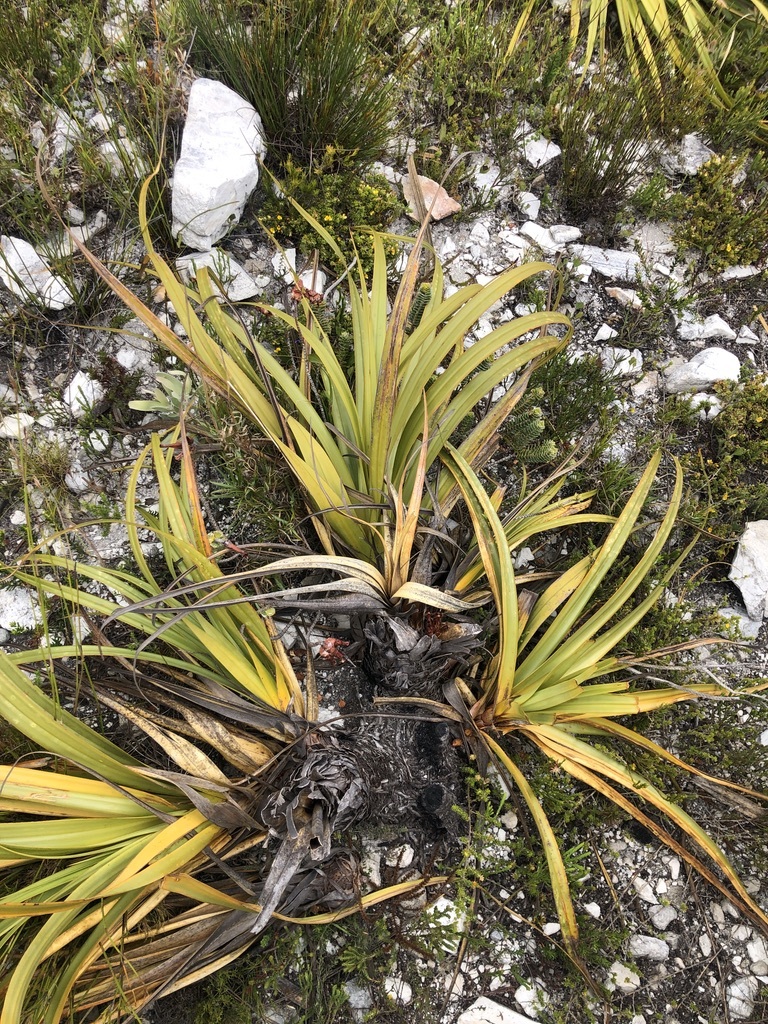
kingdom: Plantae
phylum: Tracheophyta
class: Liliopsida
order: Poales
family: Cyperaceae
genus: Tetraria
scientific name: Tetraria thermalis
